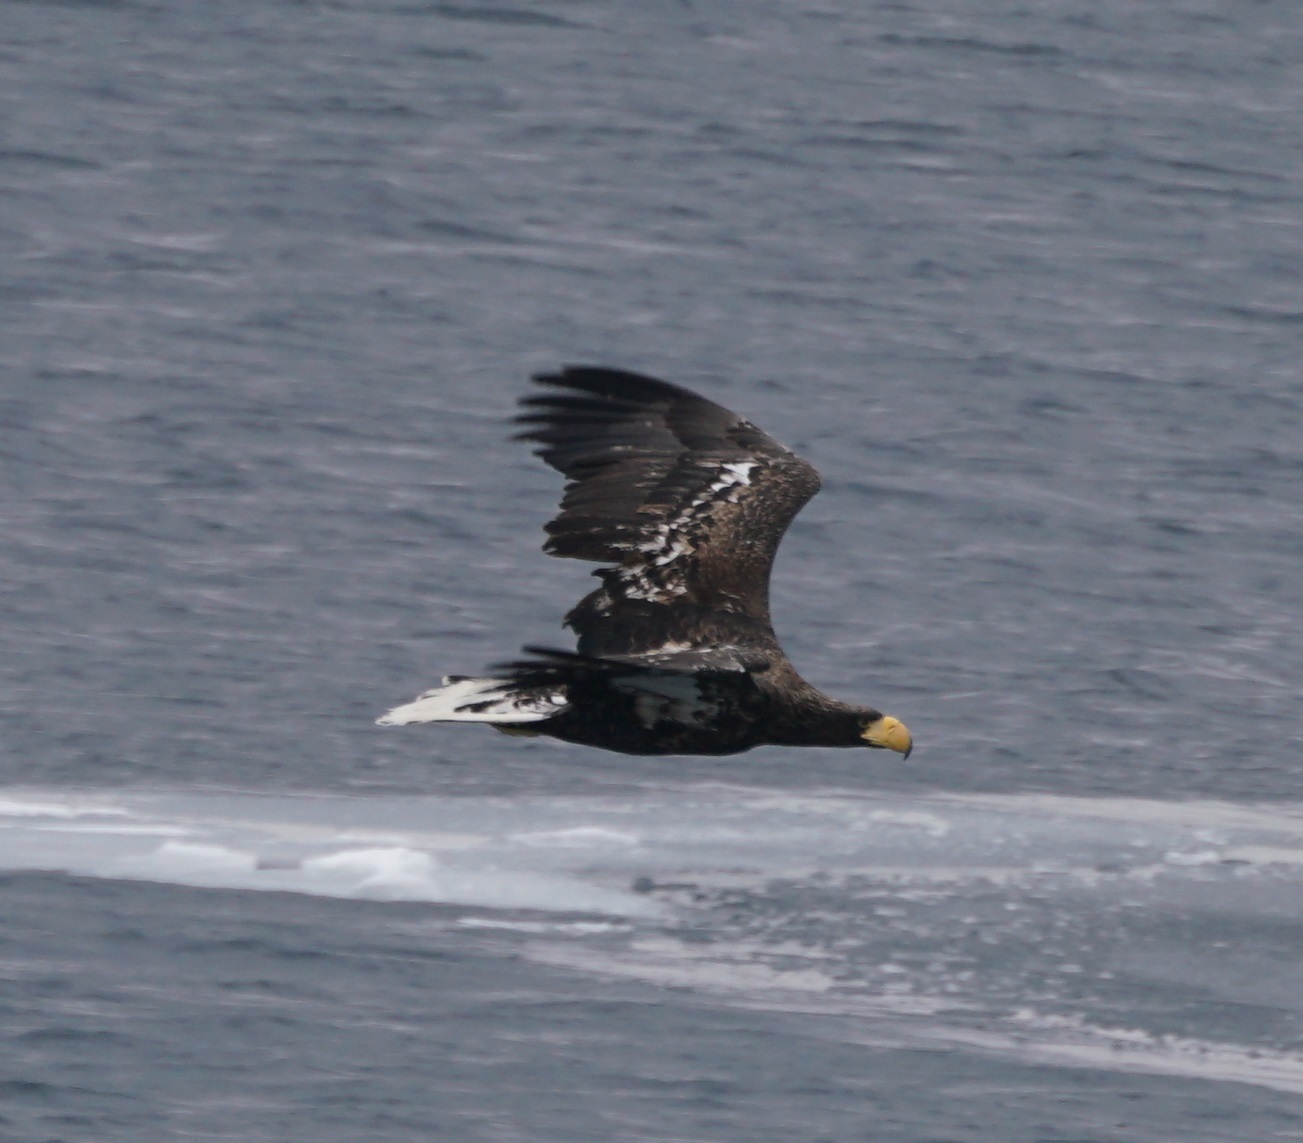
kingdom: Animalia
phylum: Chordata
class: Aves
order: Accipitriformes
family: Accipitridae
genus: Haliaeetus
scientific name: Haliaeetus pelagicus
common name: Steller's sea eagle
